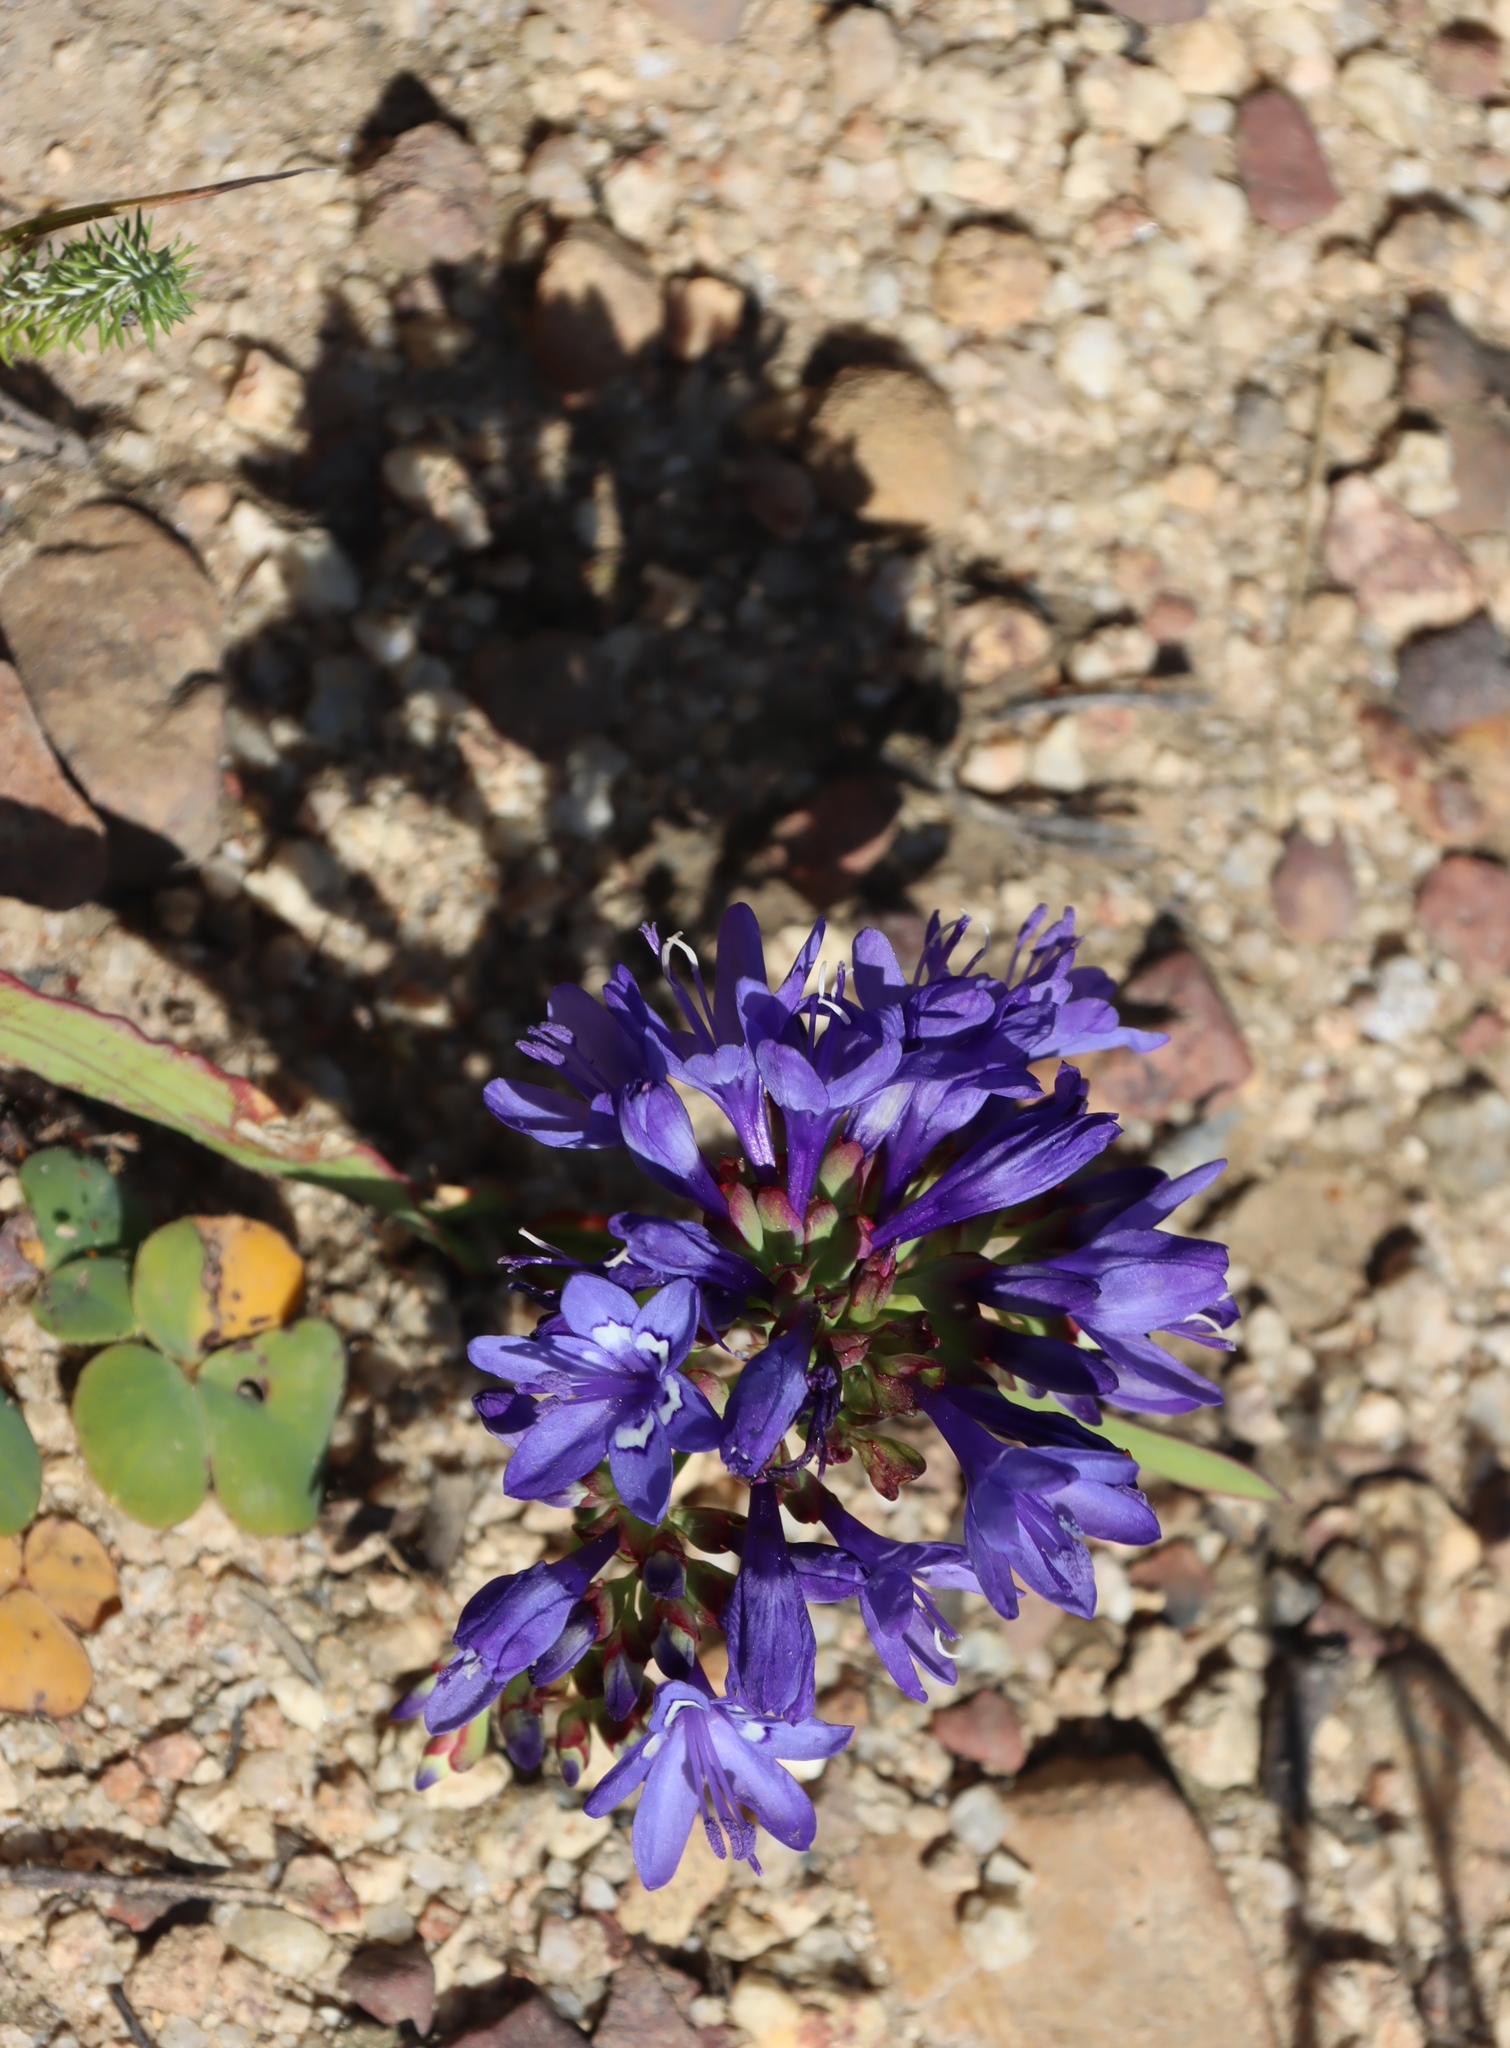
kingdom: Plantae
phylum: Tracheophyta
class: Liliopsida
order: Asparagales
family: Iridaceae
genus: Codonorhiza
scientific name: Codonorhiza elandsmontana
